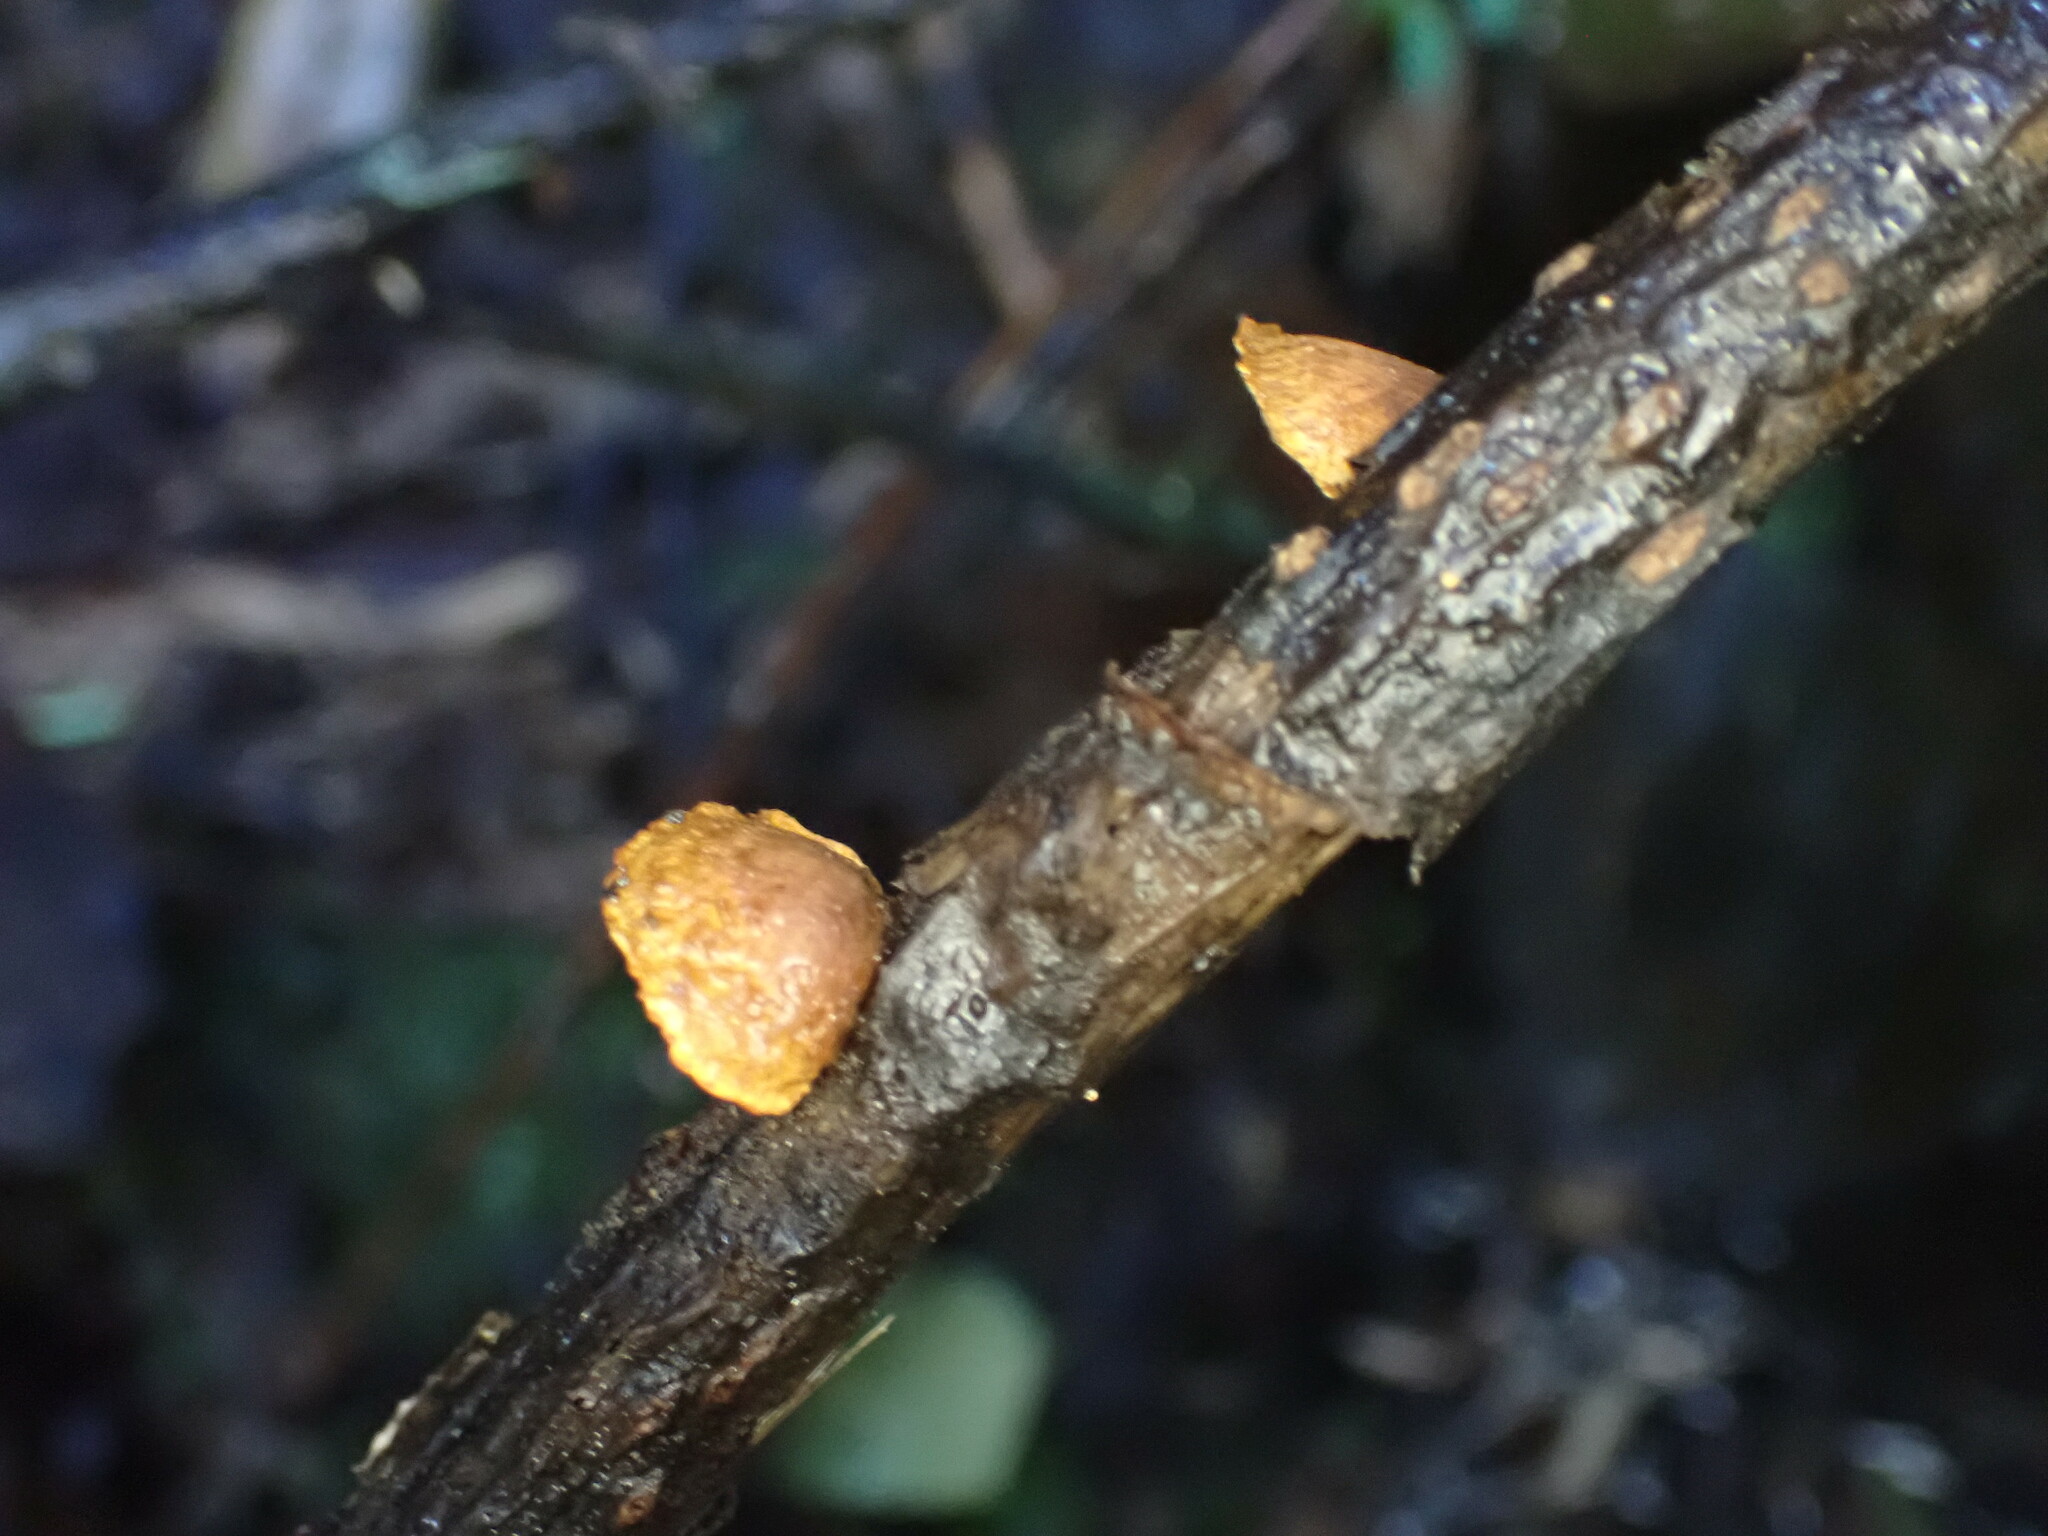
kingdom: Fungi
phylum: Basidiomycota
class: Agaricomycetes
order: Agaricales
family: Crepidotaceae
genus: Pleuroflammula
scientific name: Pleuroflammula praestans
